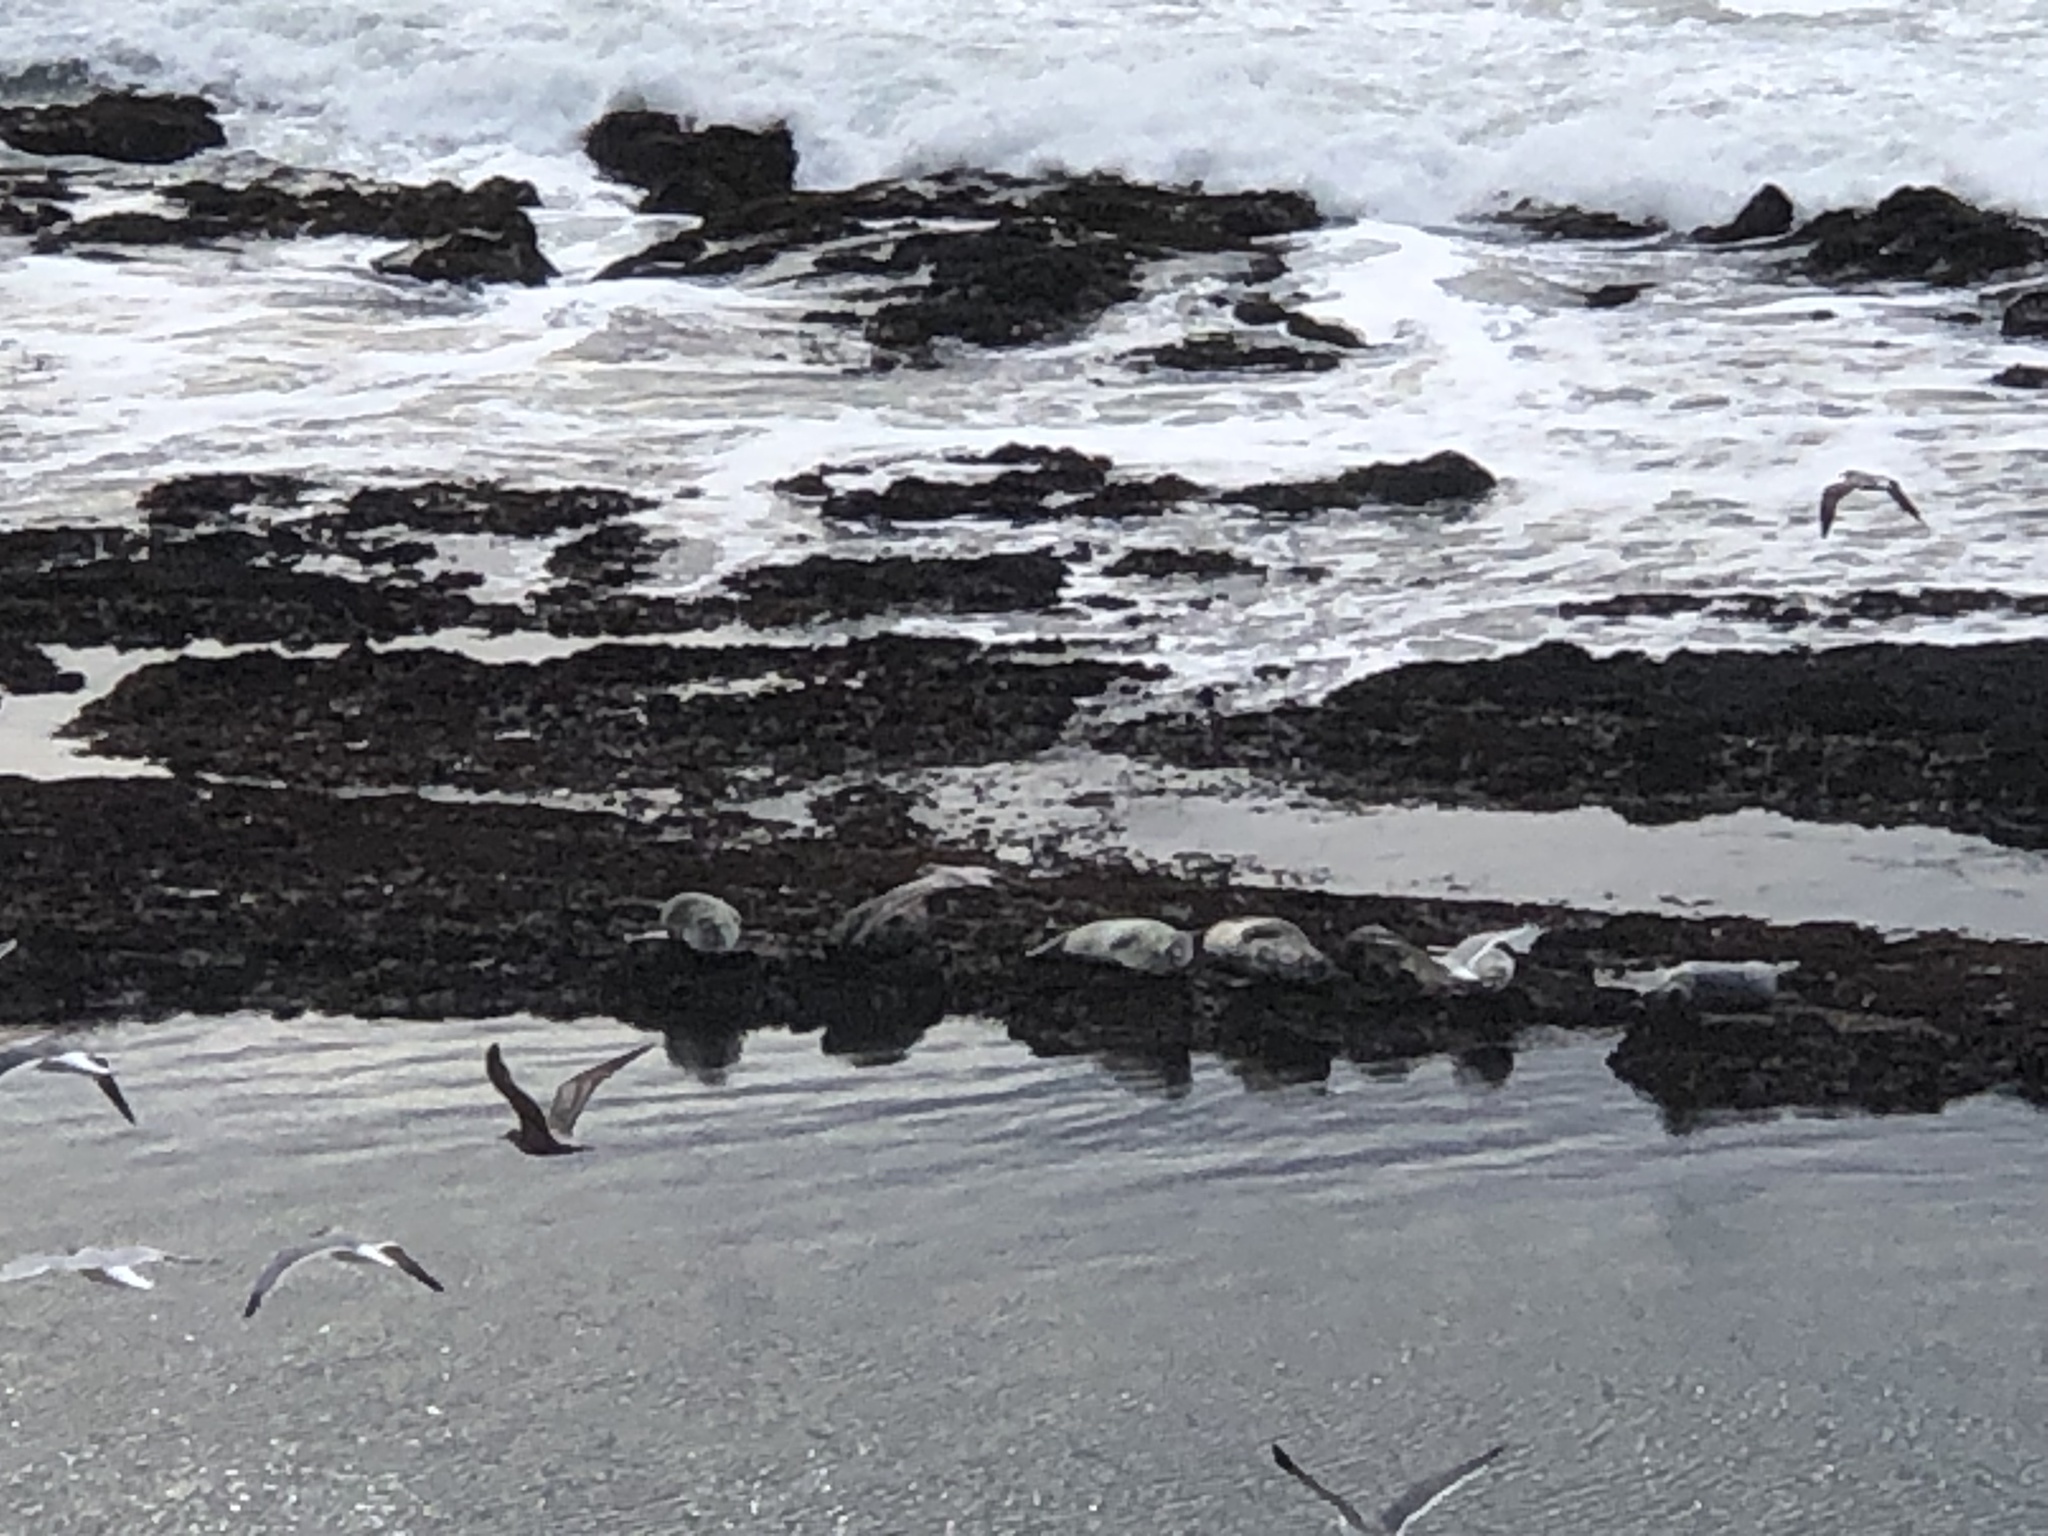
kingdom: Animalia
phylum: Chordata
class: Mammalia
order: Carnivora
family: Phocidae
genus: Phoca
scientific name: Phoca vitulina
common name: Harbor seal
